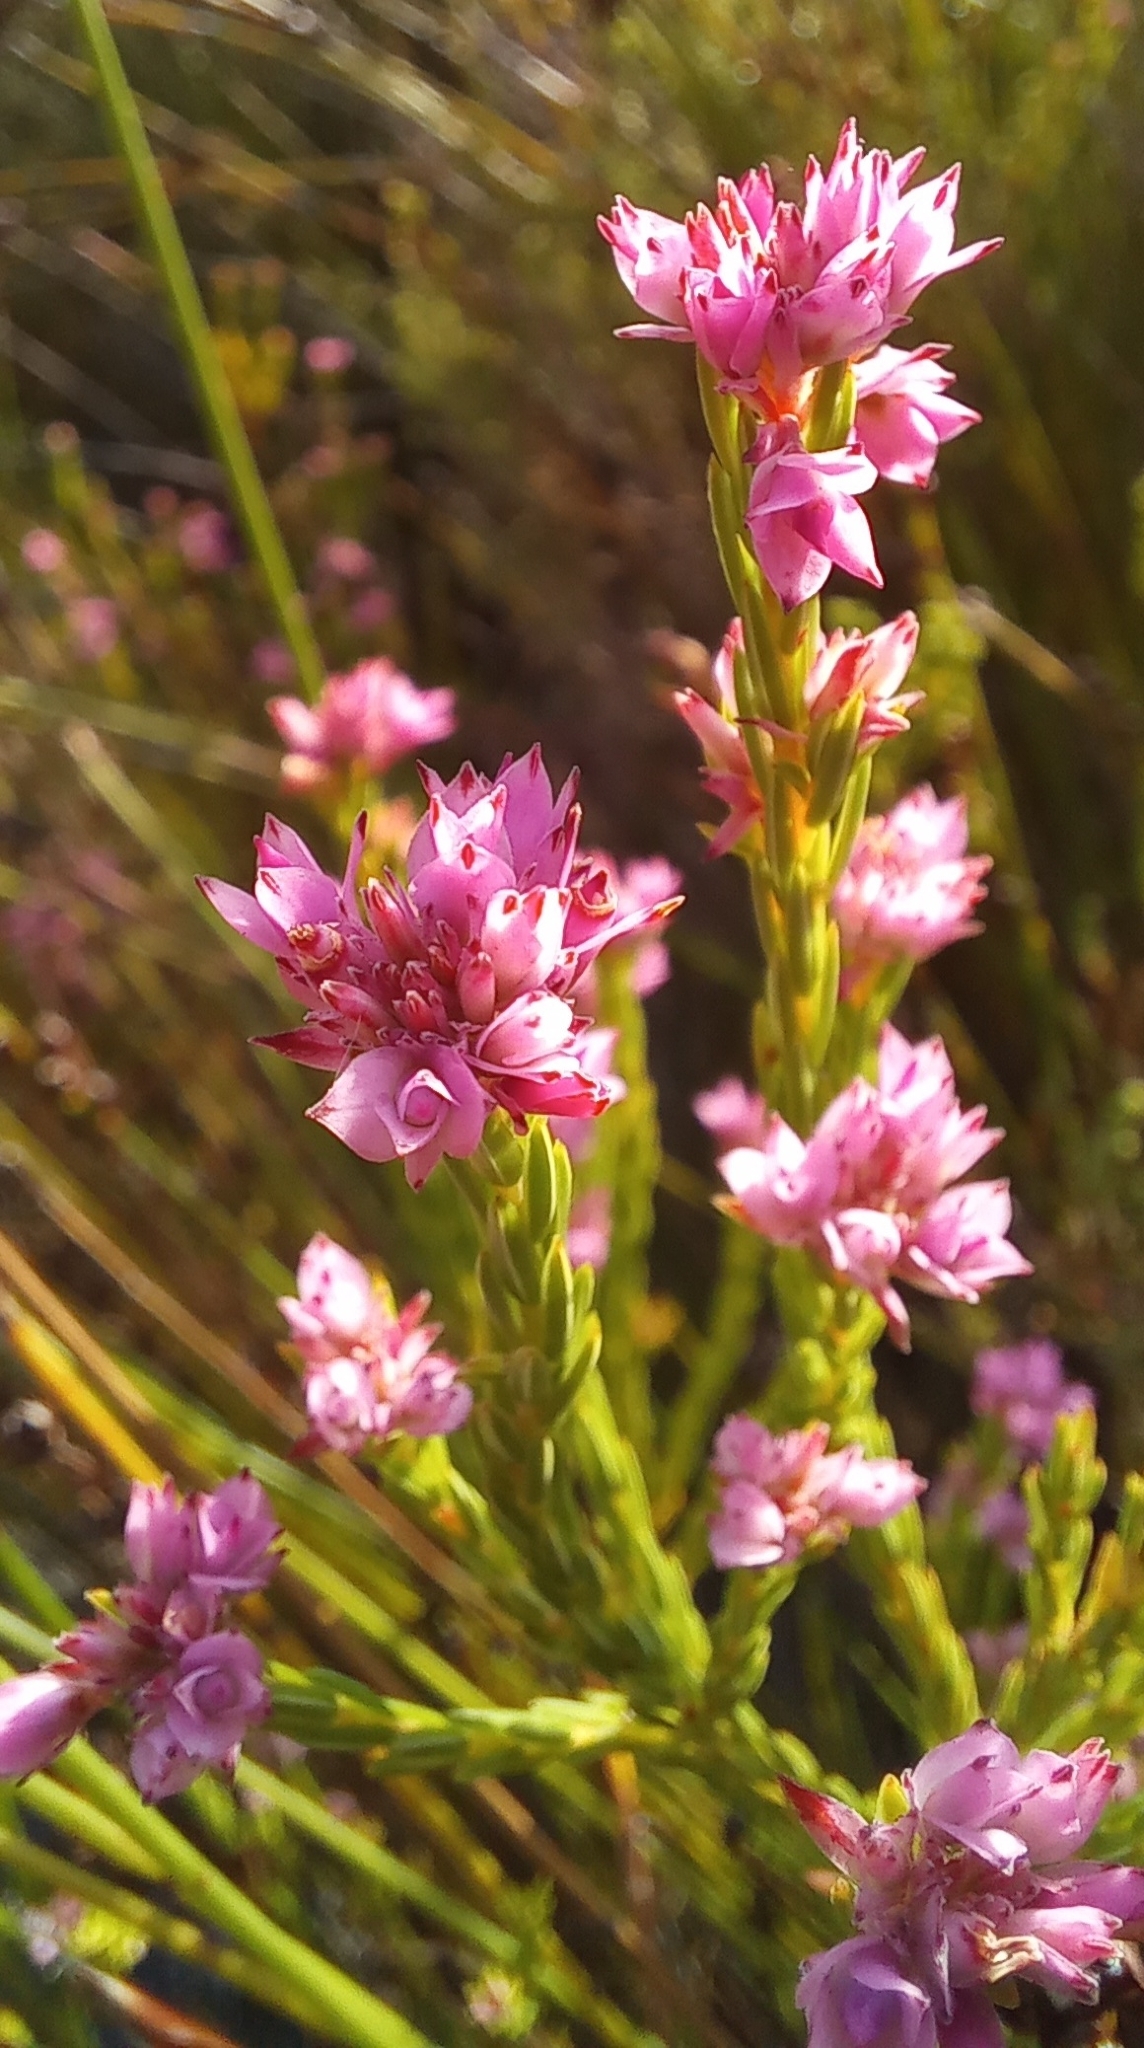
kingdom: Plantae
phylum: Tracheophyta
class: Magnoliopsida
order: Ericales
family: Ericaceae
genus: Erica
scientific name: Erica corifolia
